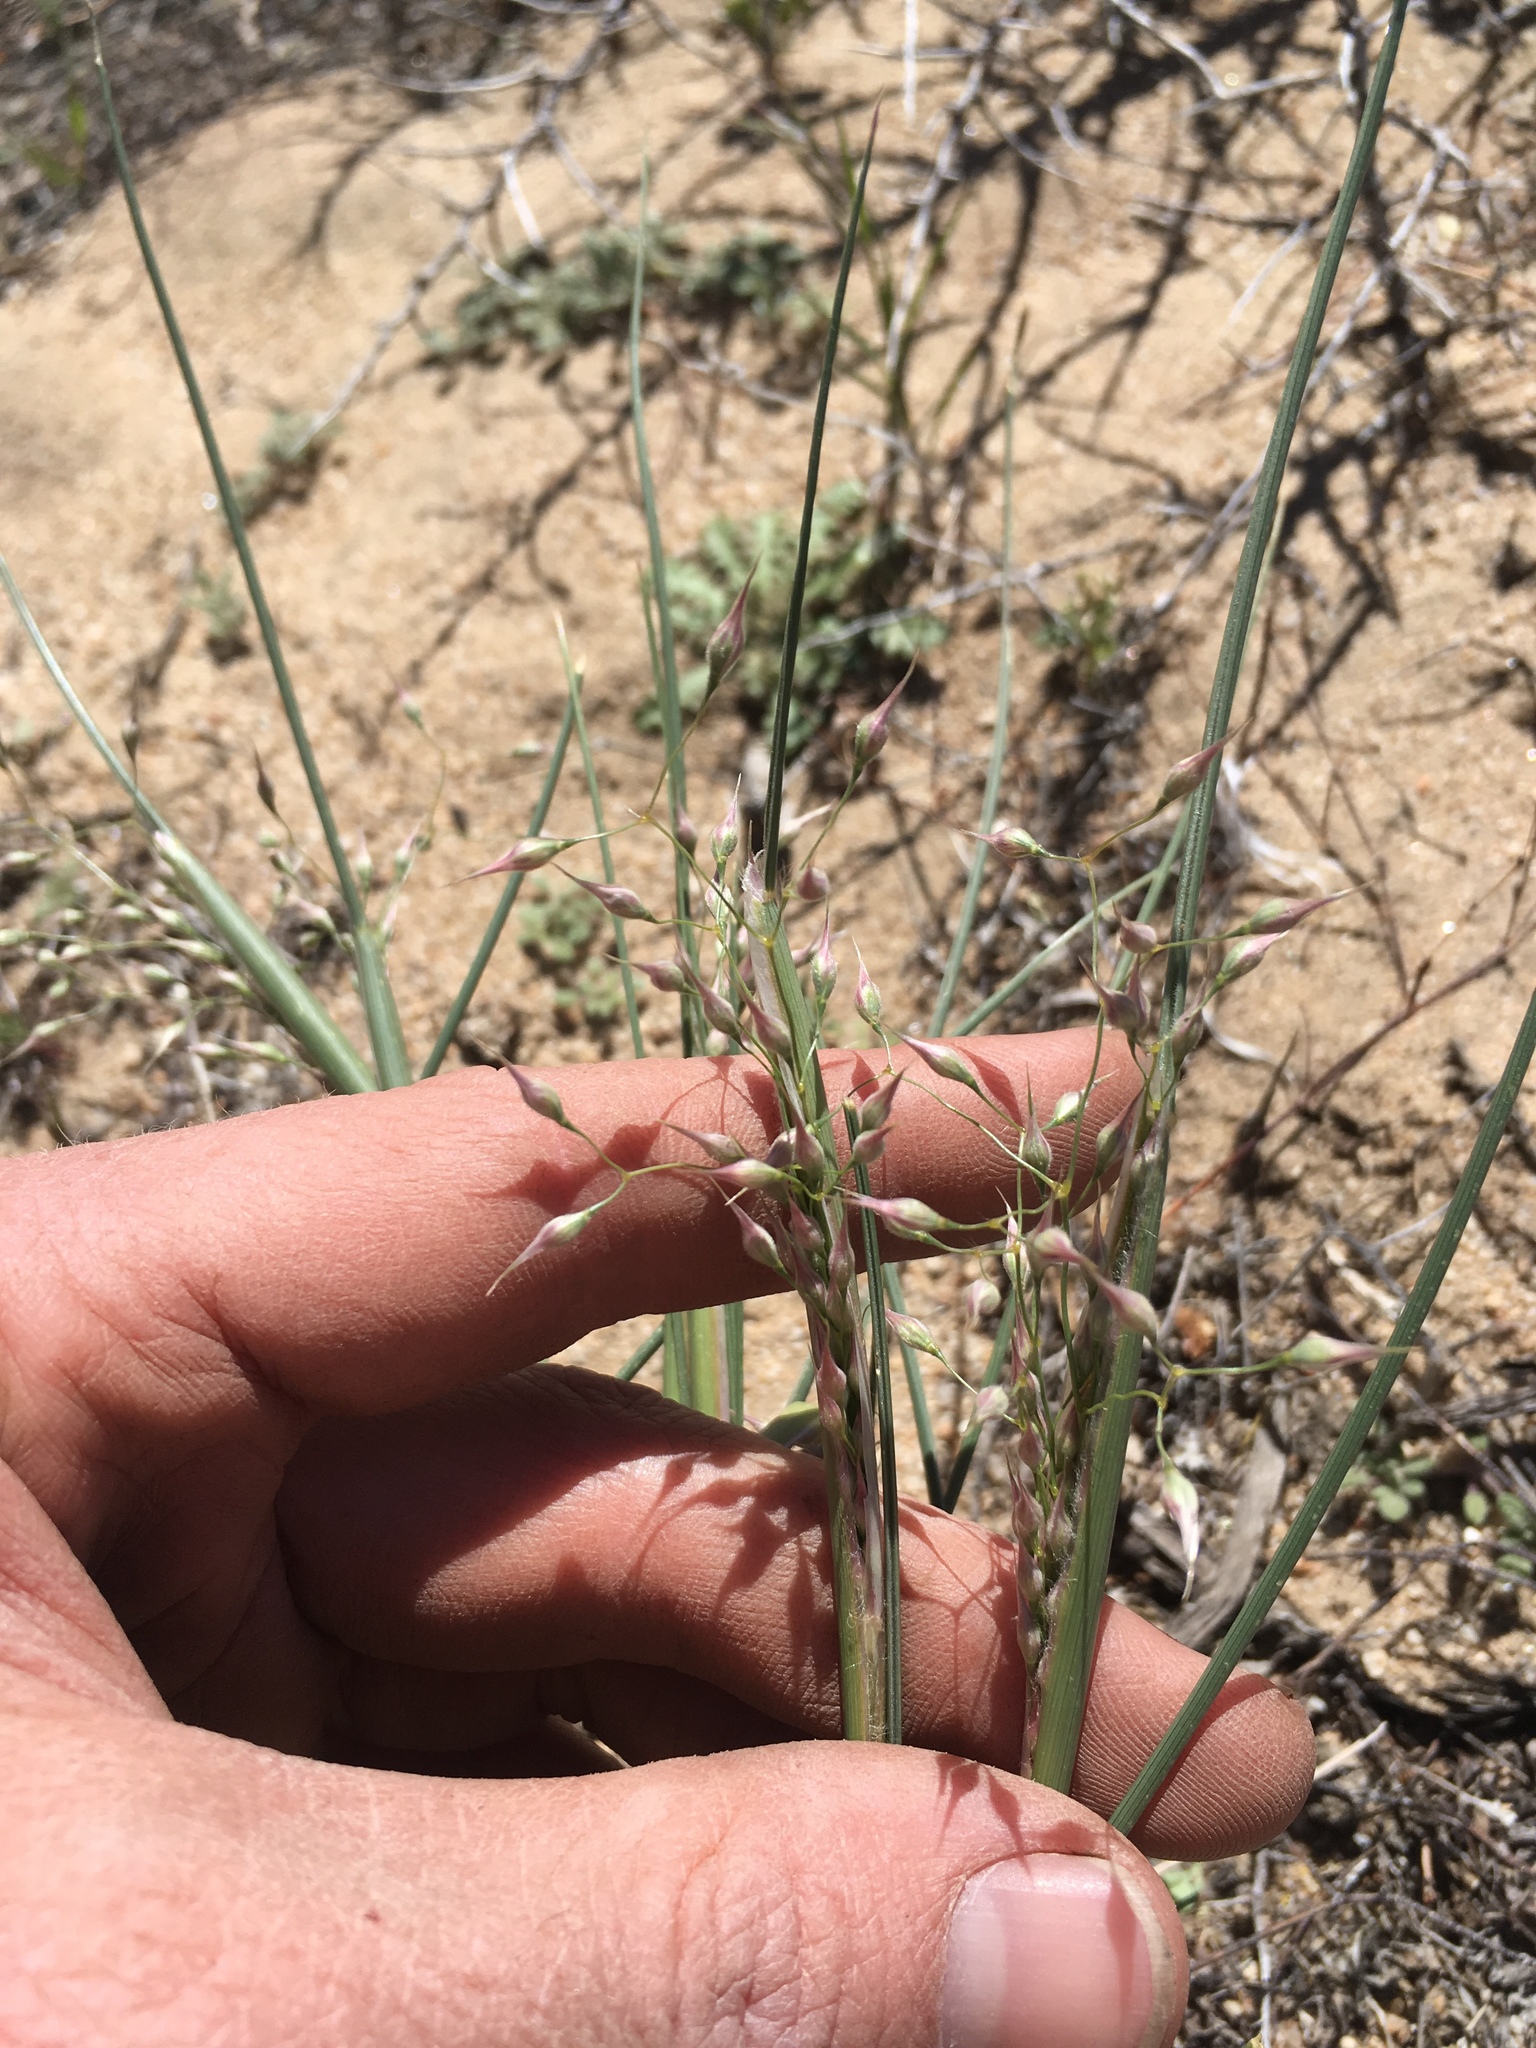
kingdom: Plantae
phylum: Tracheophyta
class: Liliopsida
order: Poales
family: Poaceae
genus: Eriocoma
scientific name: Eriocoma hymenoides
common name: Indian mountain ricegrass
